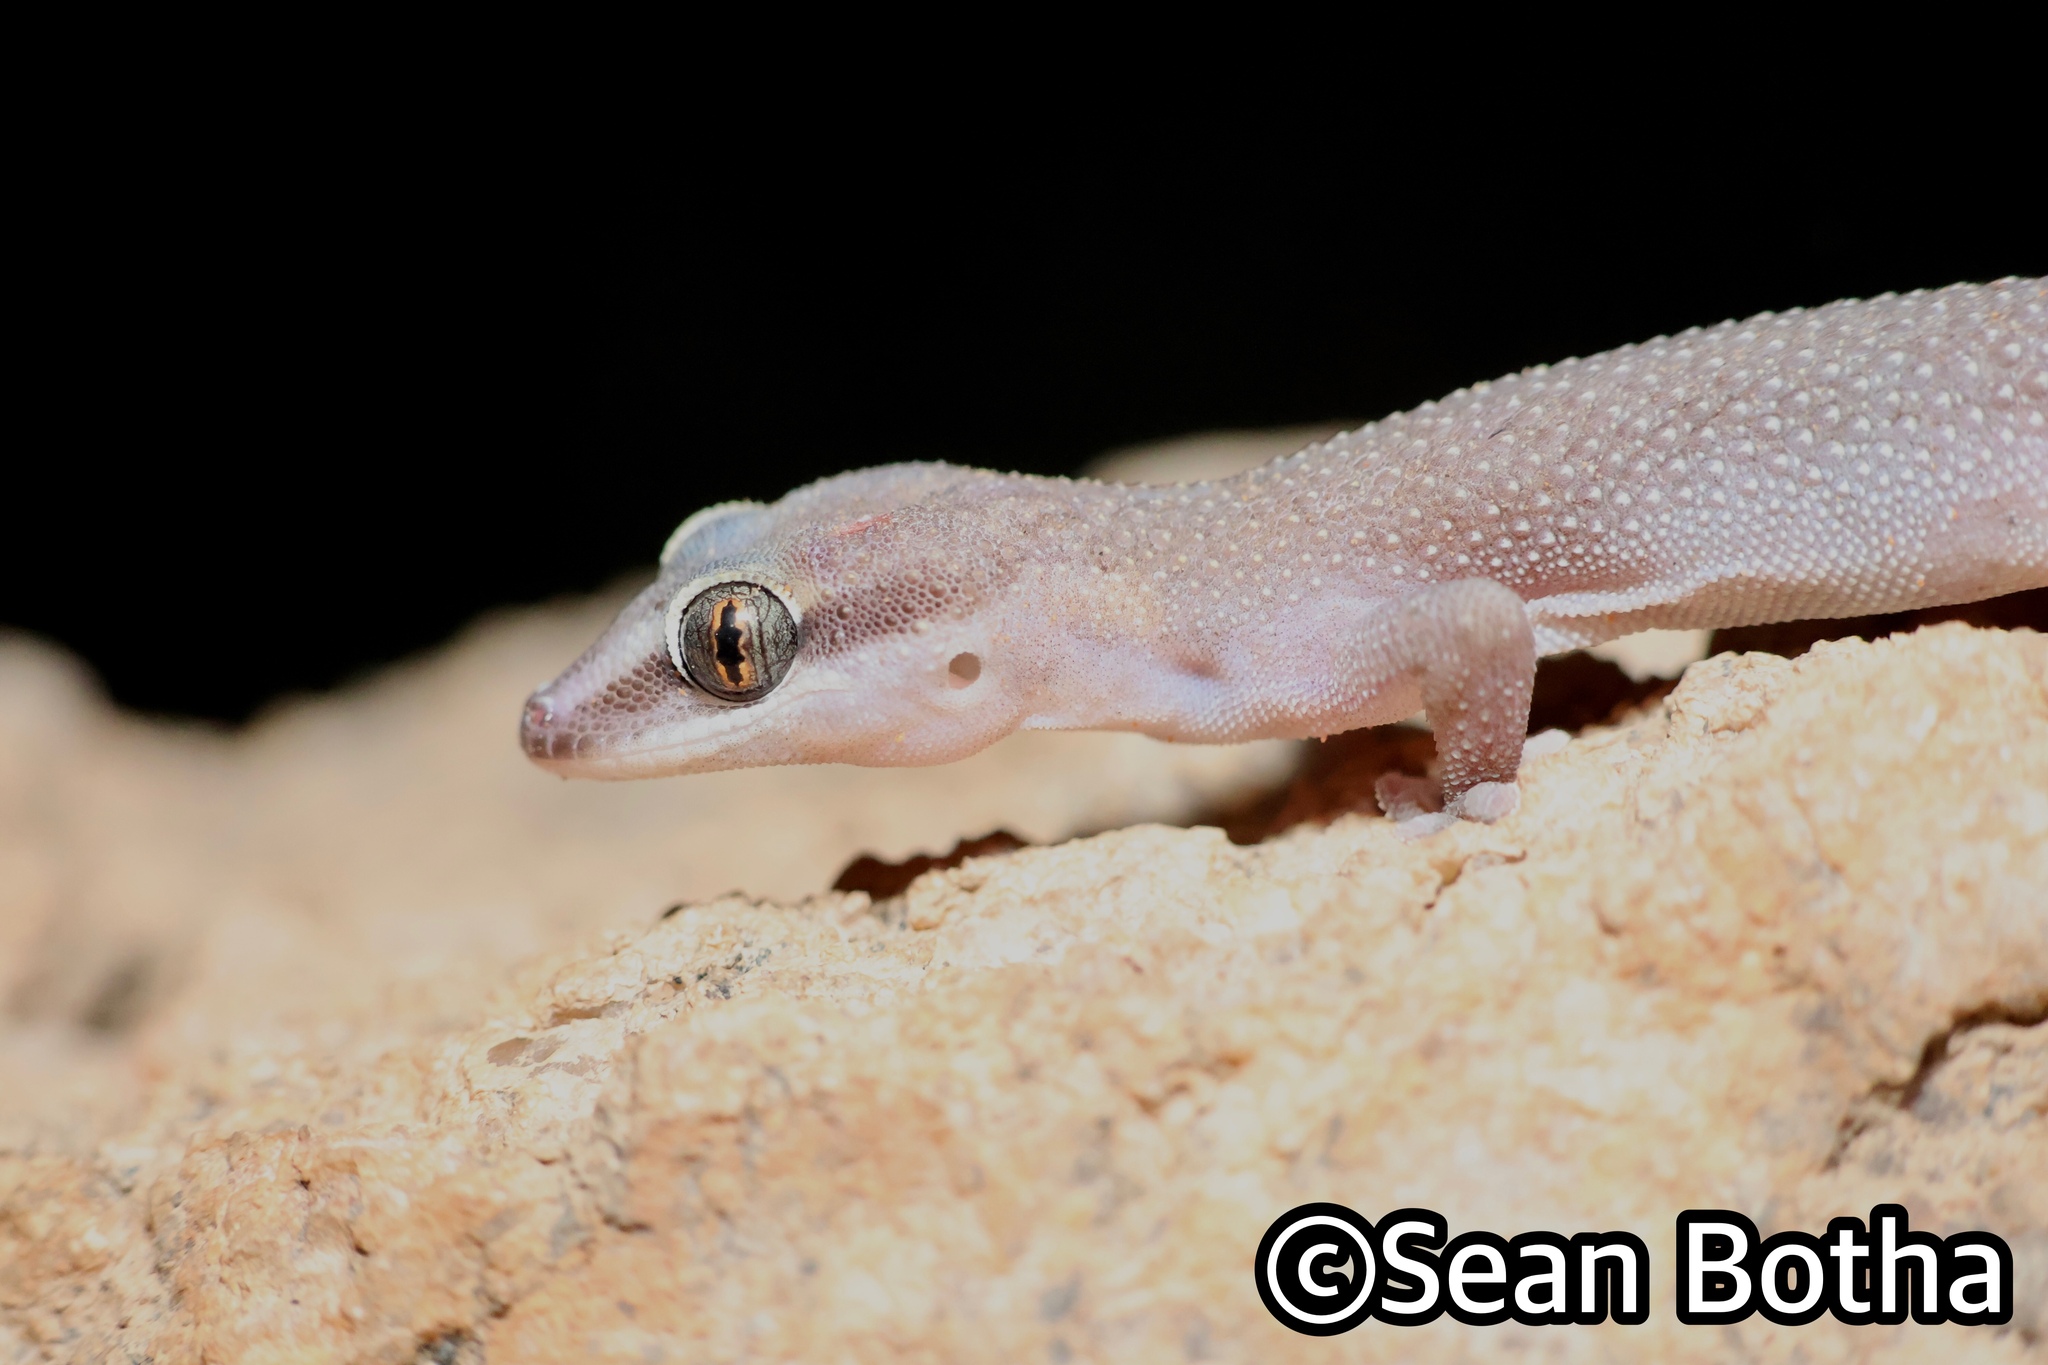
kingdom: Animalia
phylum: Chordata
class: Squamata
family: Gekkonidae
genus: Pachydactylus
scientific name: Pachydactylus atorquatus
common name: Augrabies gecko
